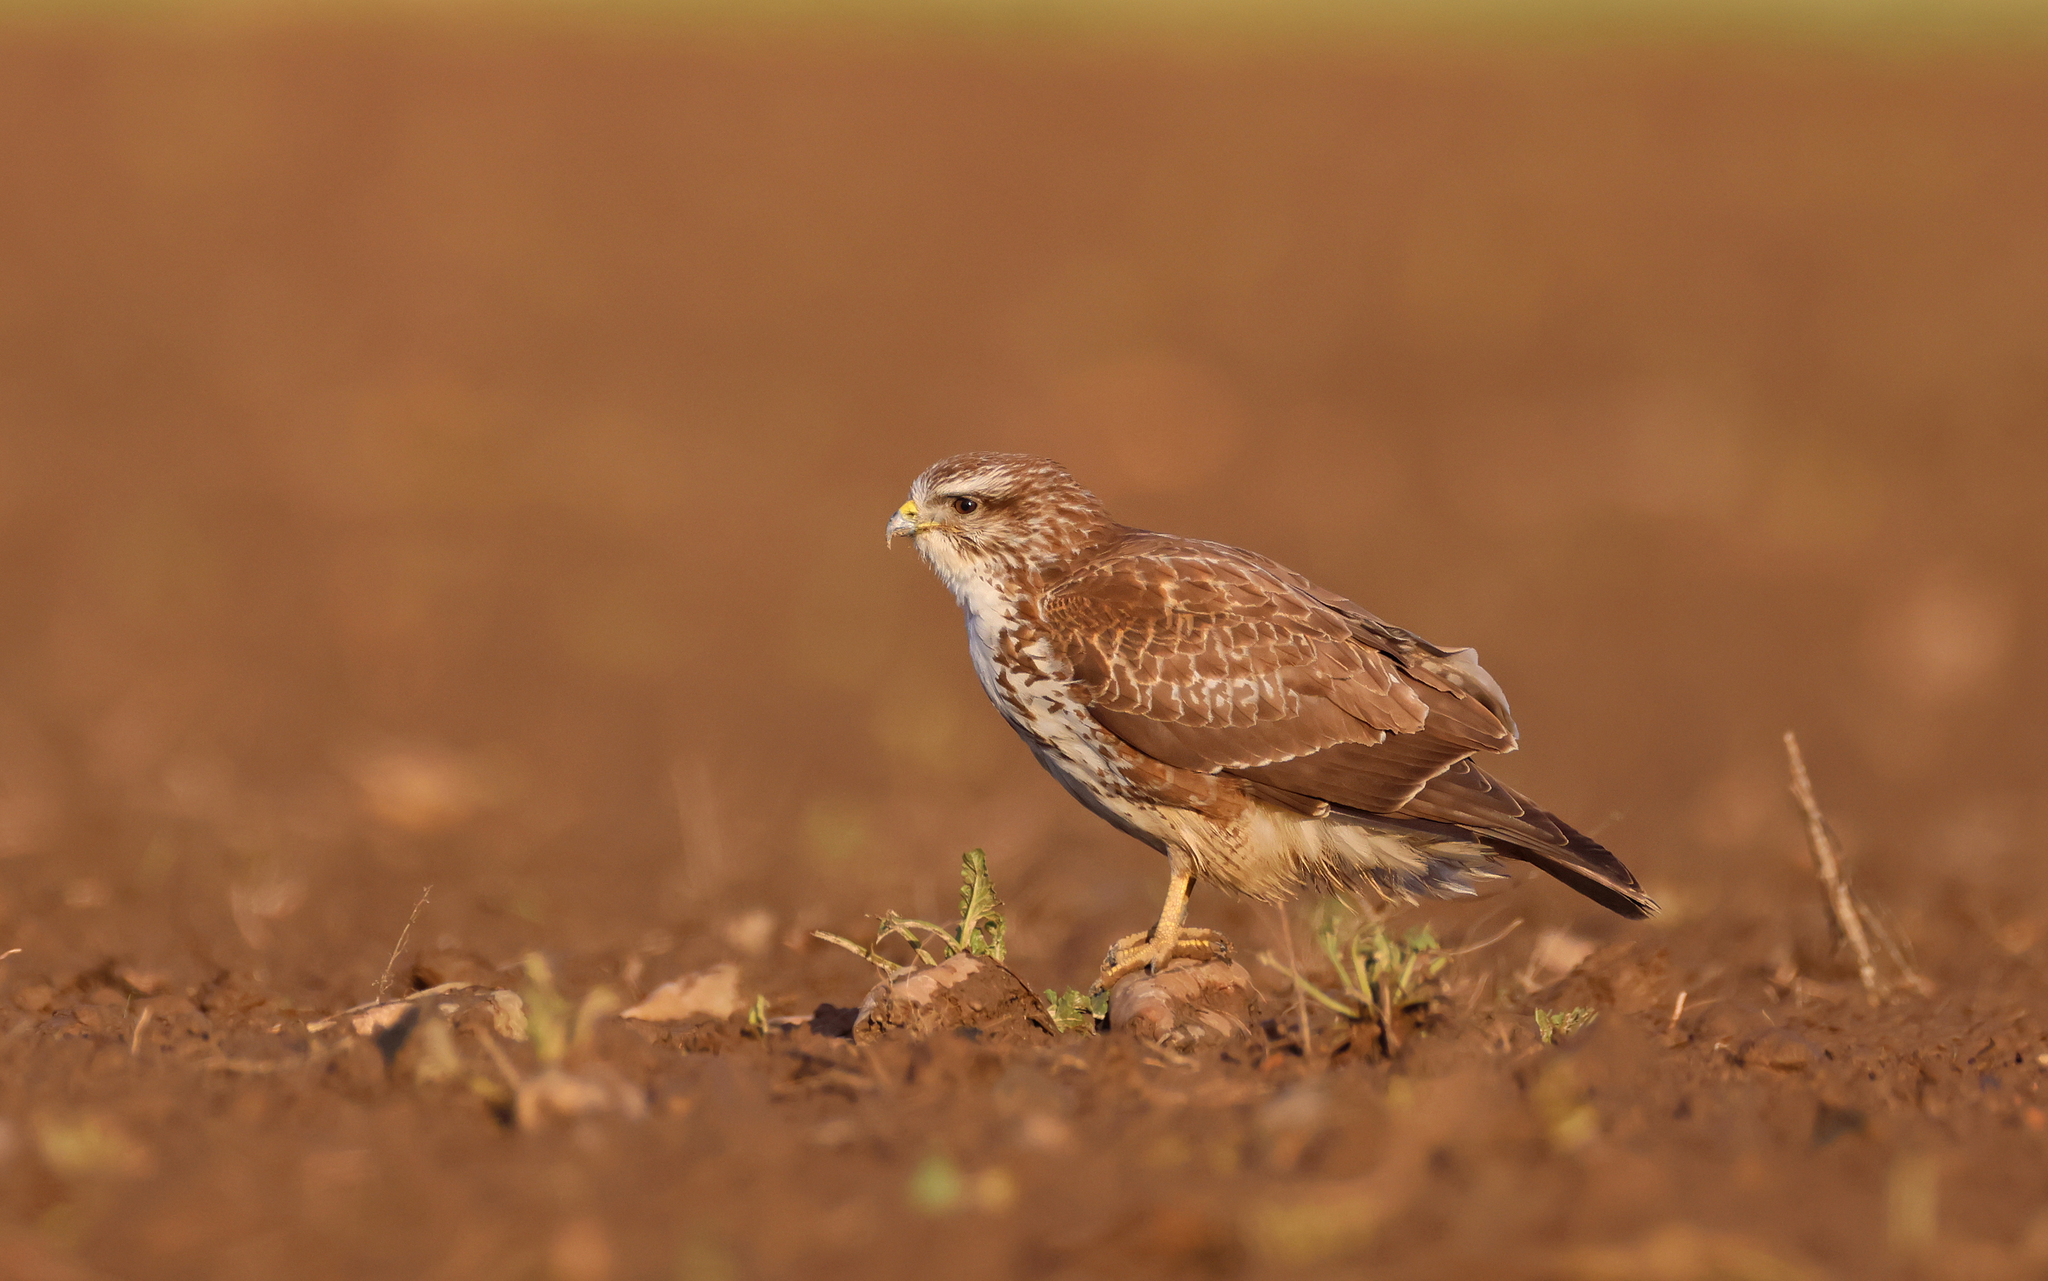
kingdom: Animalia
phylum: Chordata
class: Aves
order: Accipitriformes
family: Accipitridae
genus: Buteo
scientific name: Buteo buteo
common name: Common buzzard
